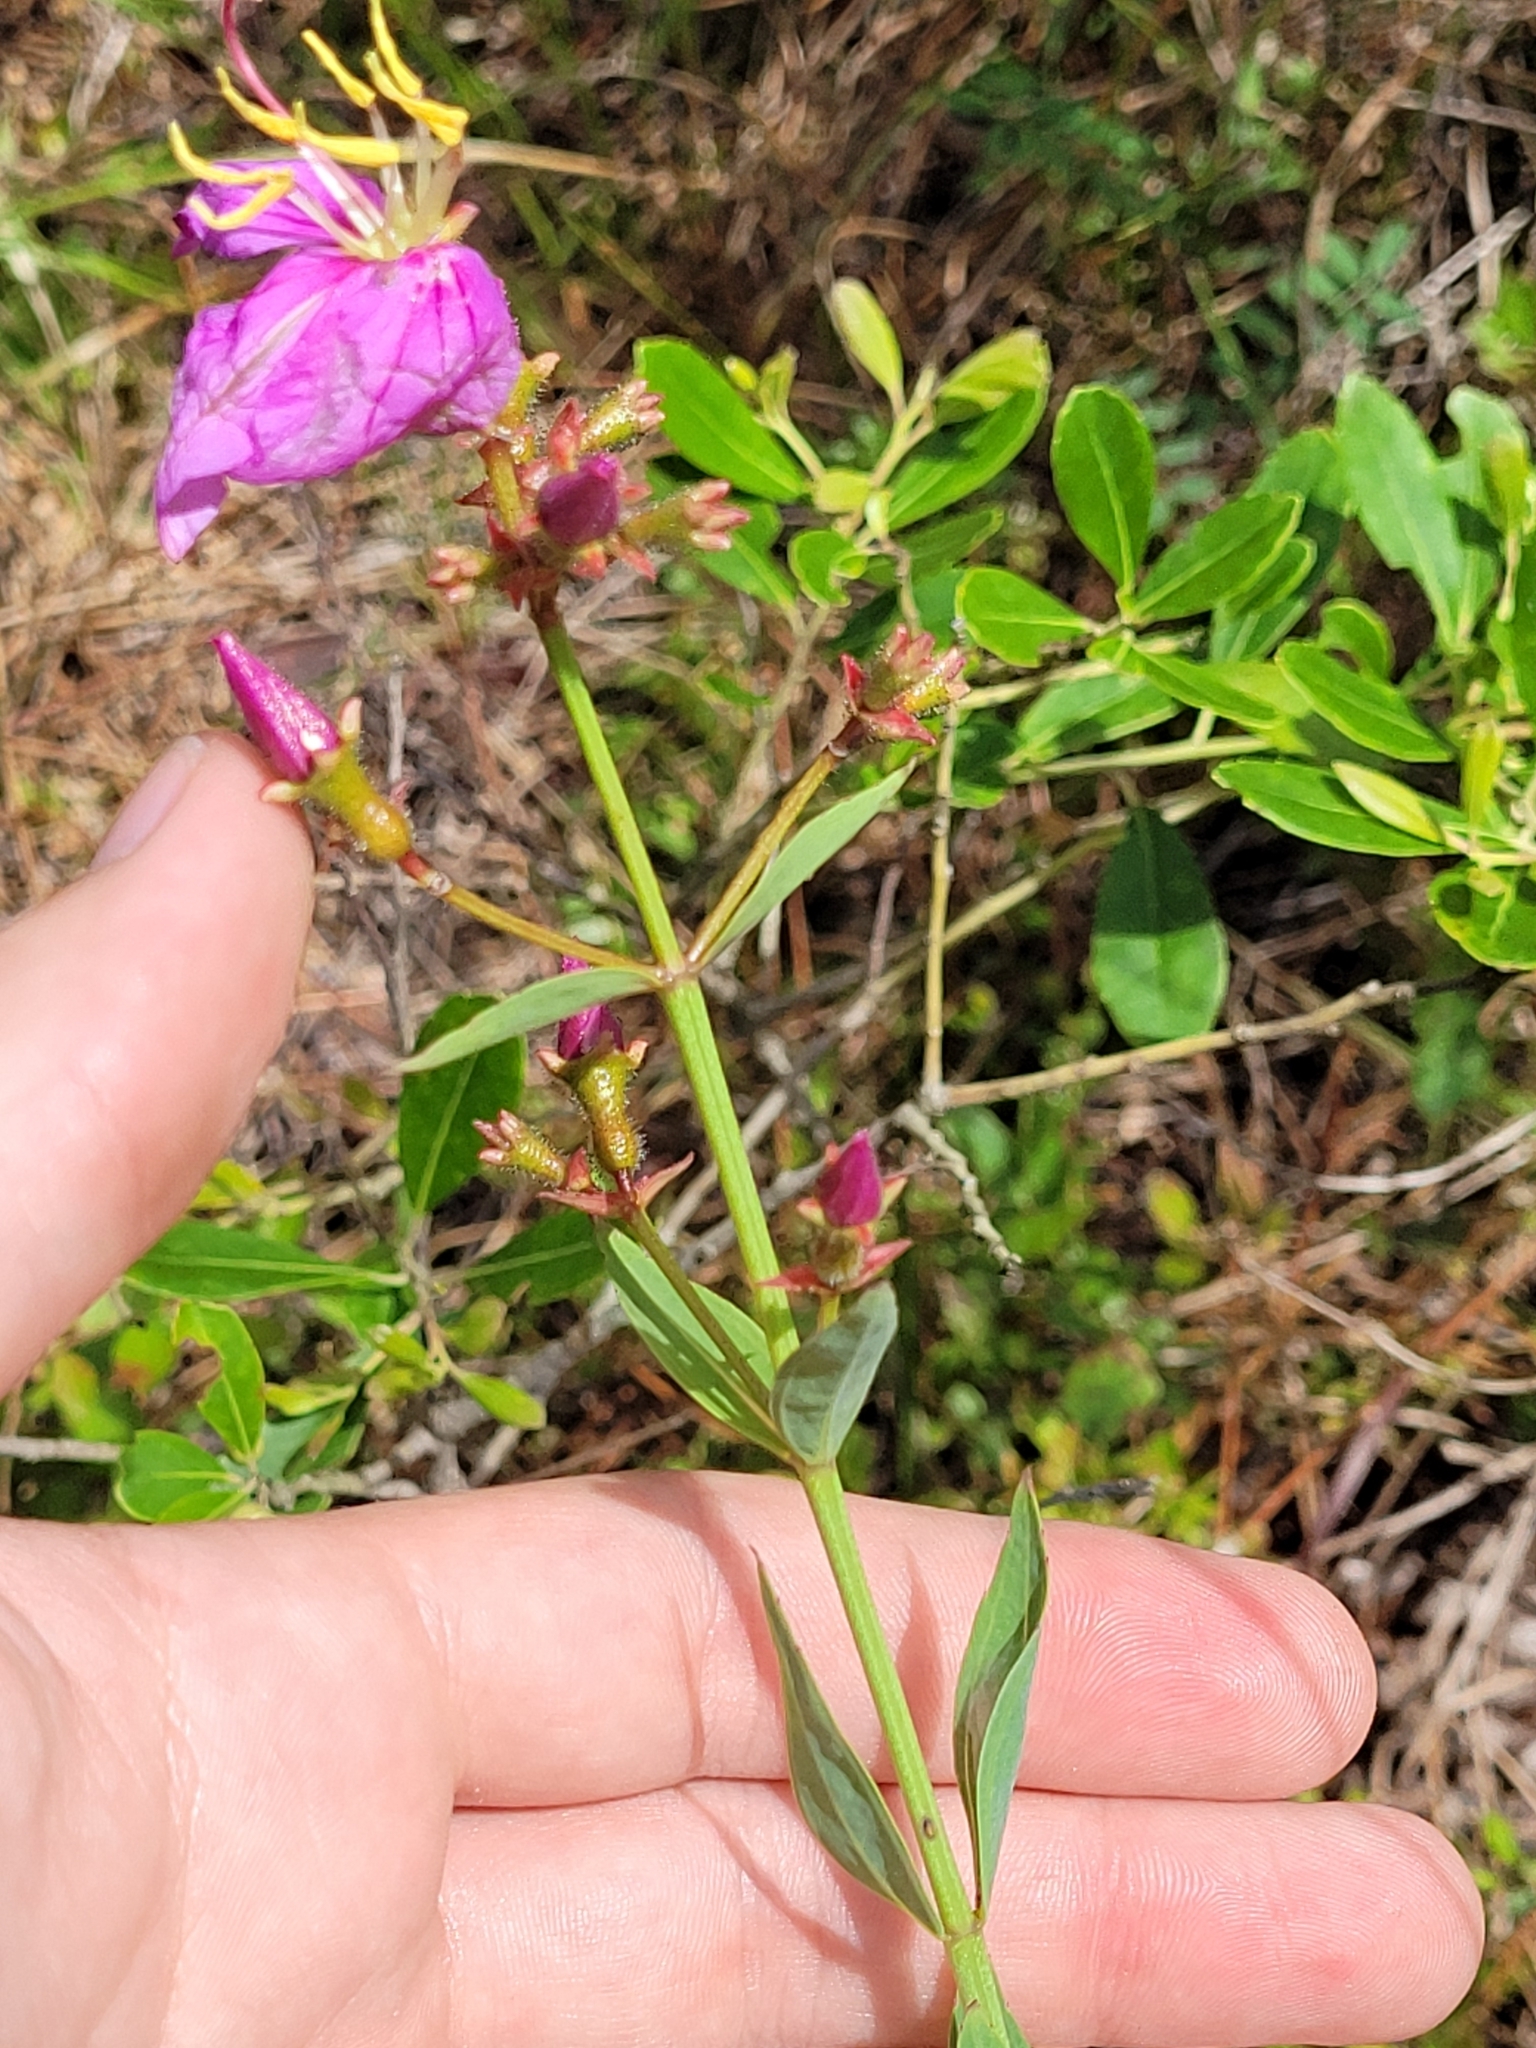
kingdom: Plantae
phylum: Tracheophyta
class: Magnoliopsida
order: Myrtales
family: Melastomataceae
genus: Rhexia
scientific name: Rhexia alifanus
